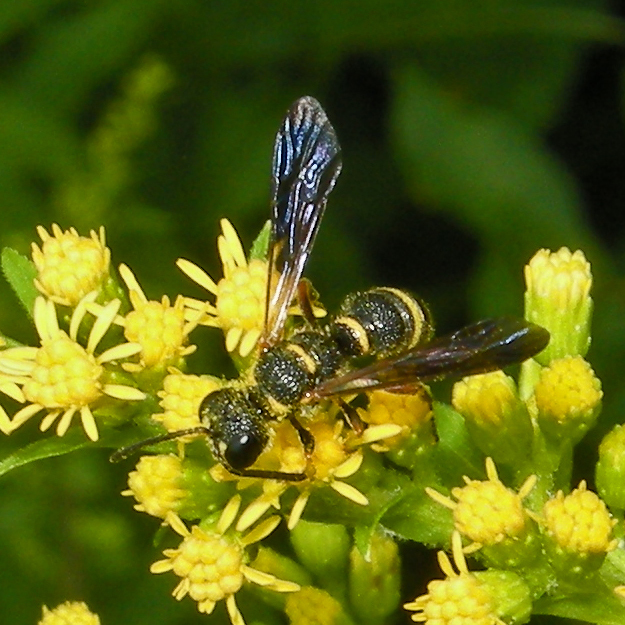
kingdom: Animalia
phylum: Arthropoda
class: Insecta
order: Hymenoptera
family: Crabronidae
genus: Cerceris
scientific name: Cerceris insolita
